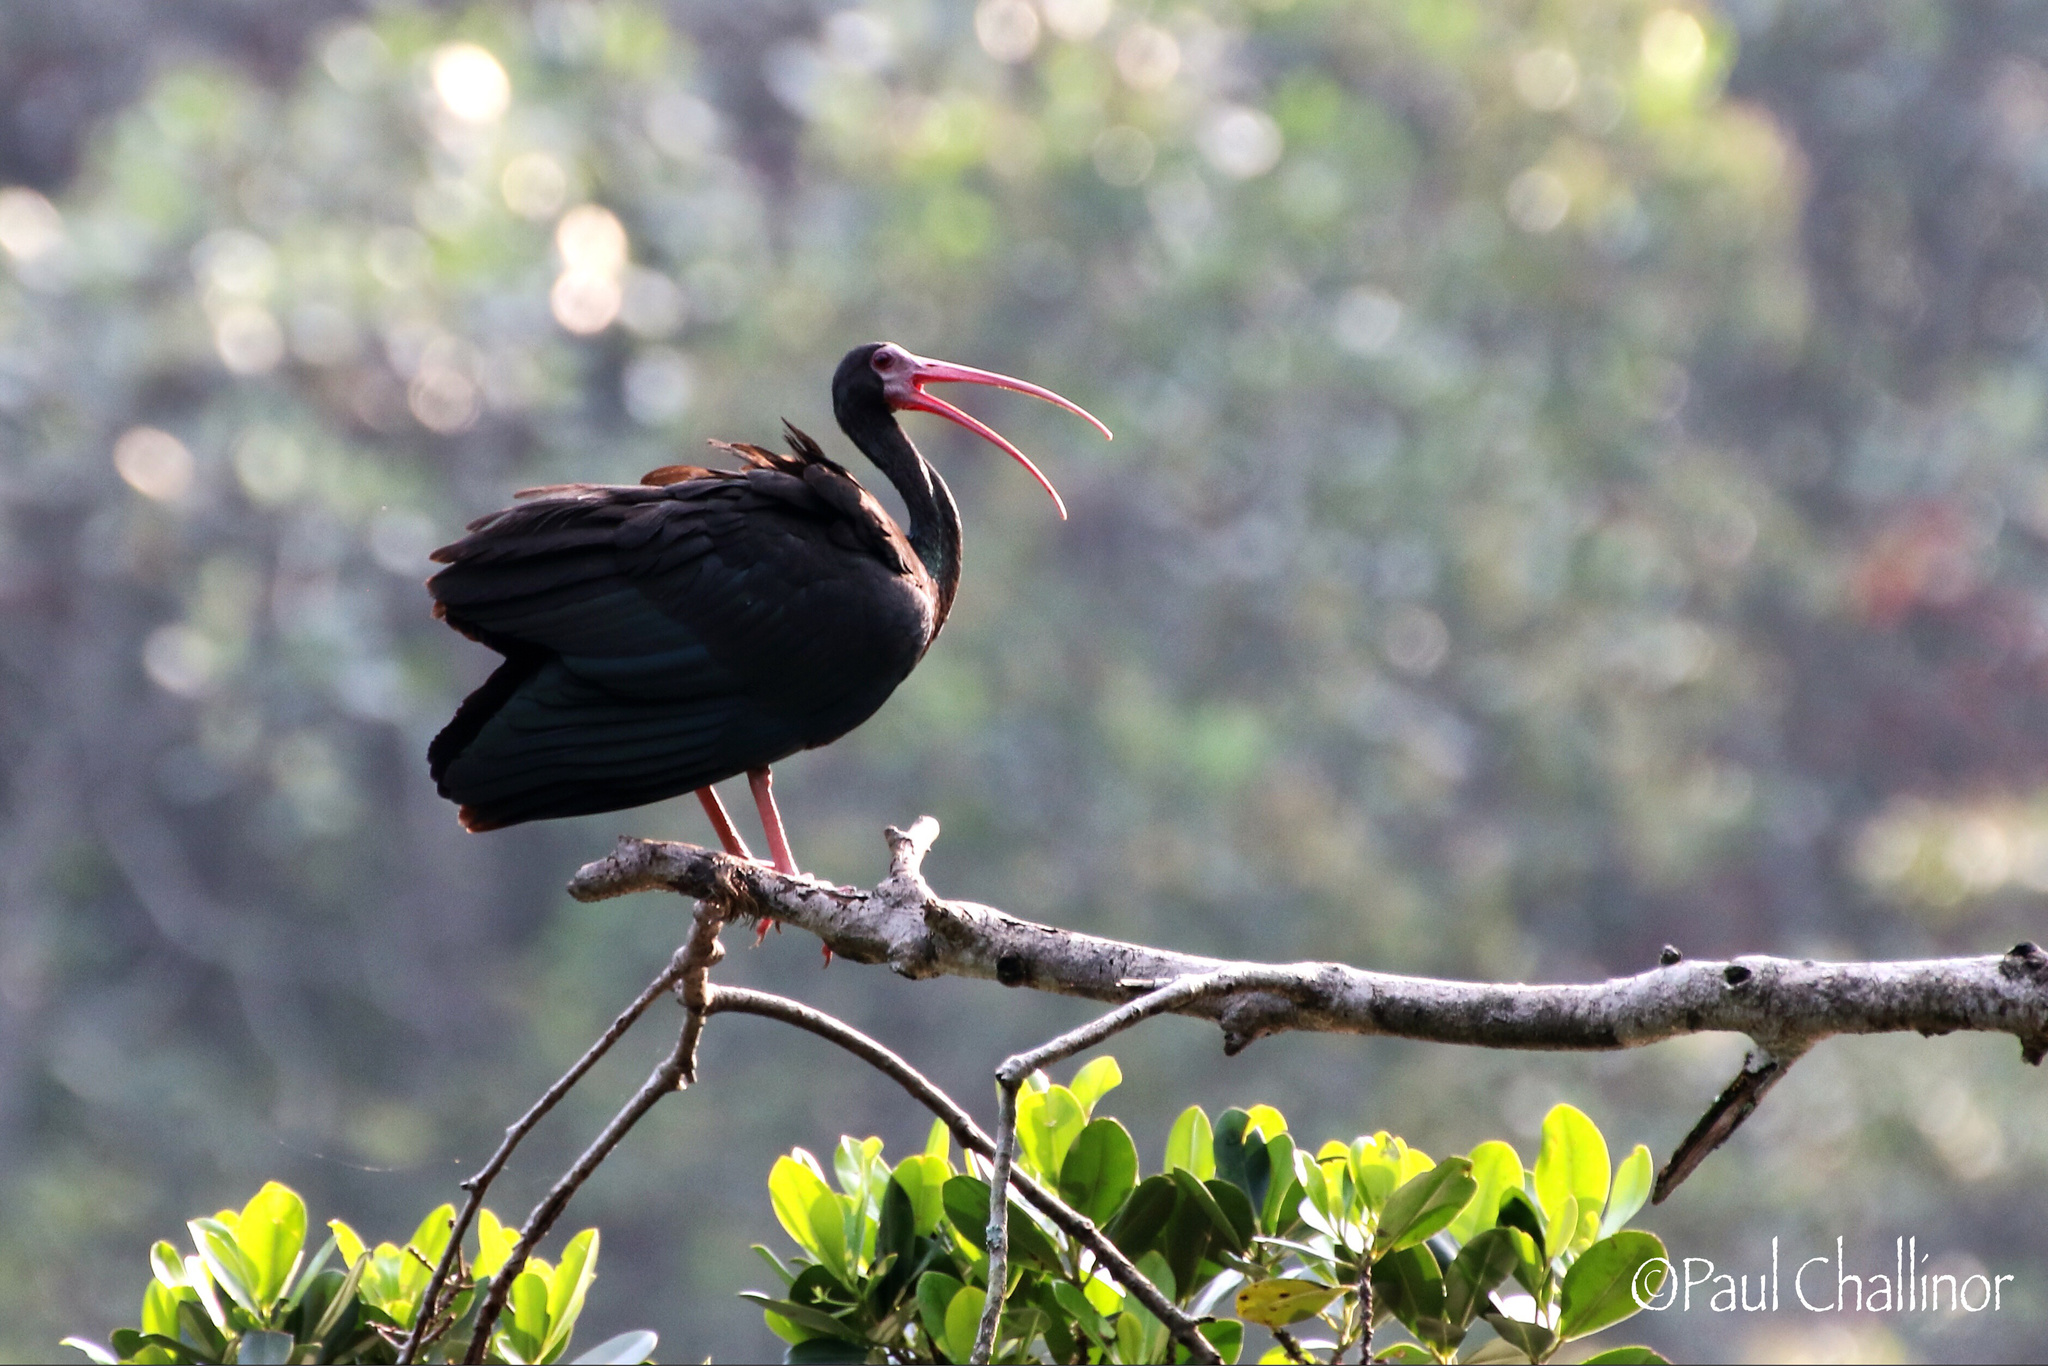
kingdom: Animalia
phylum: Chordata
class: Aves
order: Pelecaniformes
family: Threskiornithidae
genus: Phimosus
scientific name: Phimosus infuscatus
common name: Bare-faced ibis
